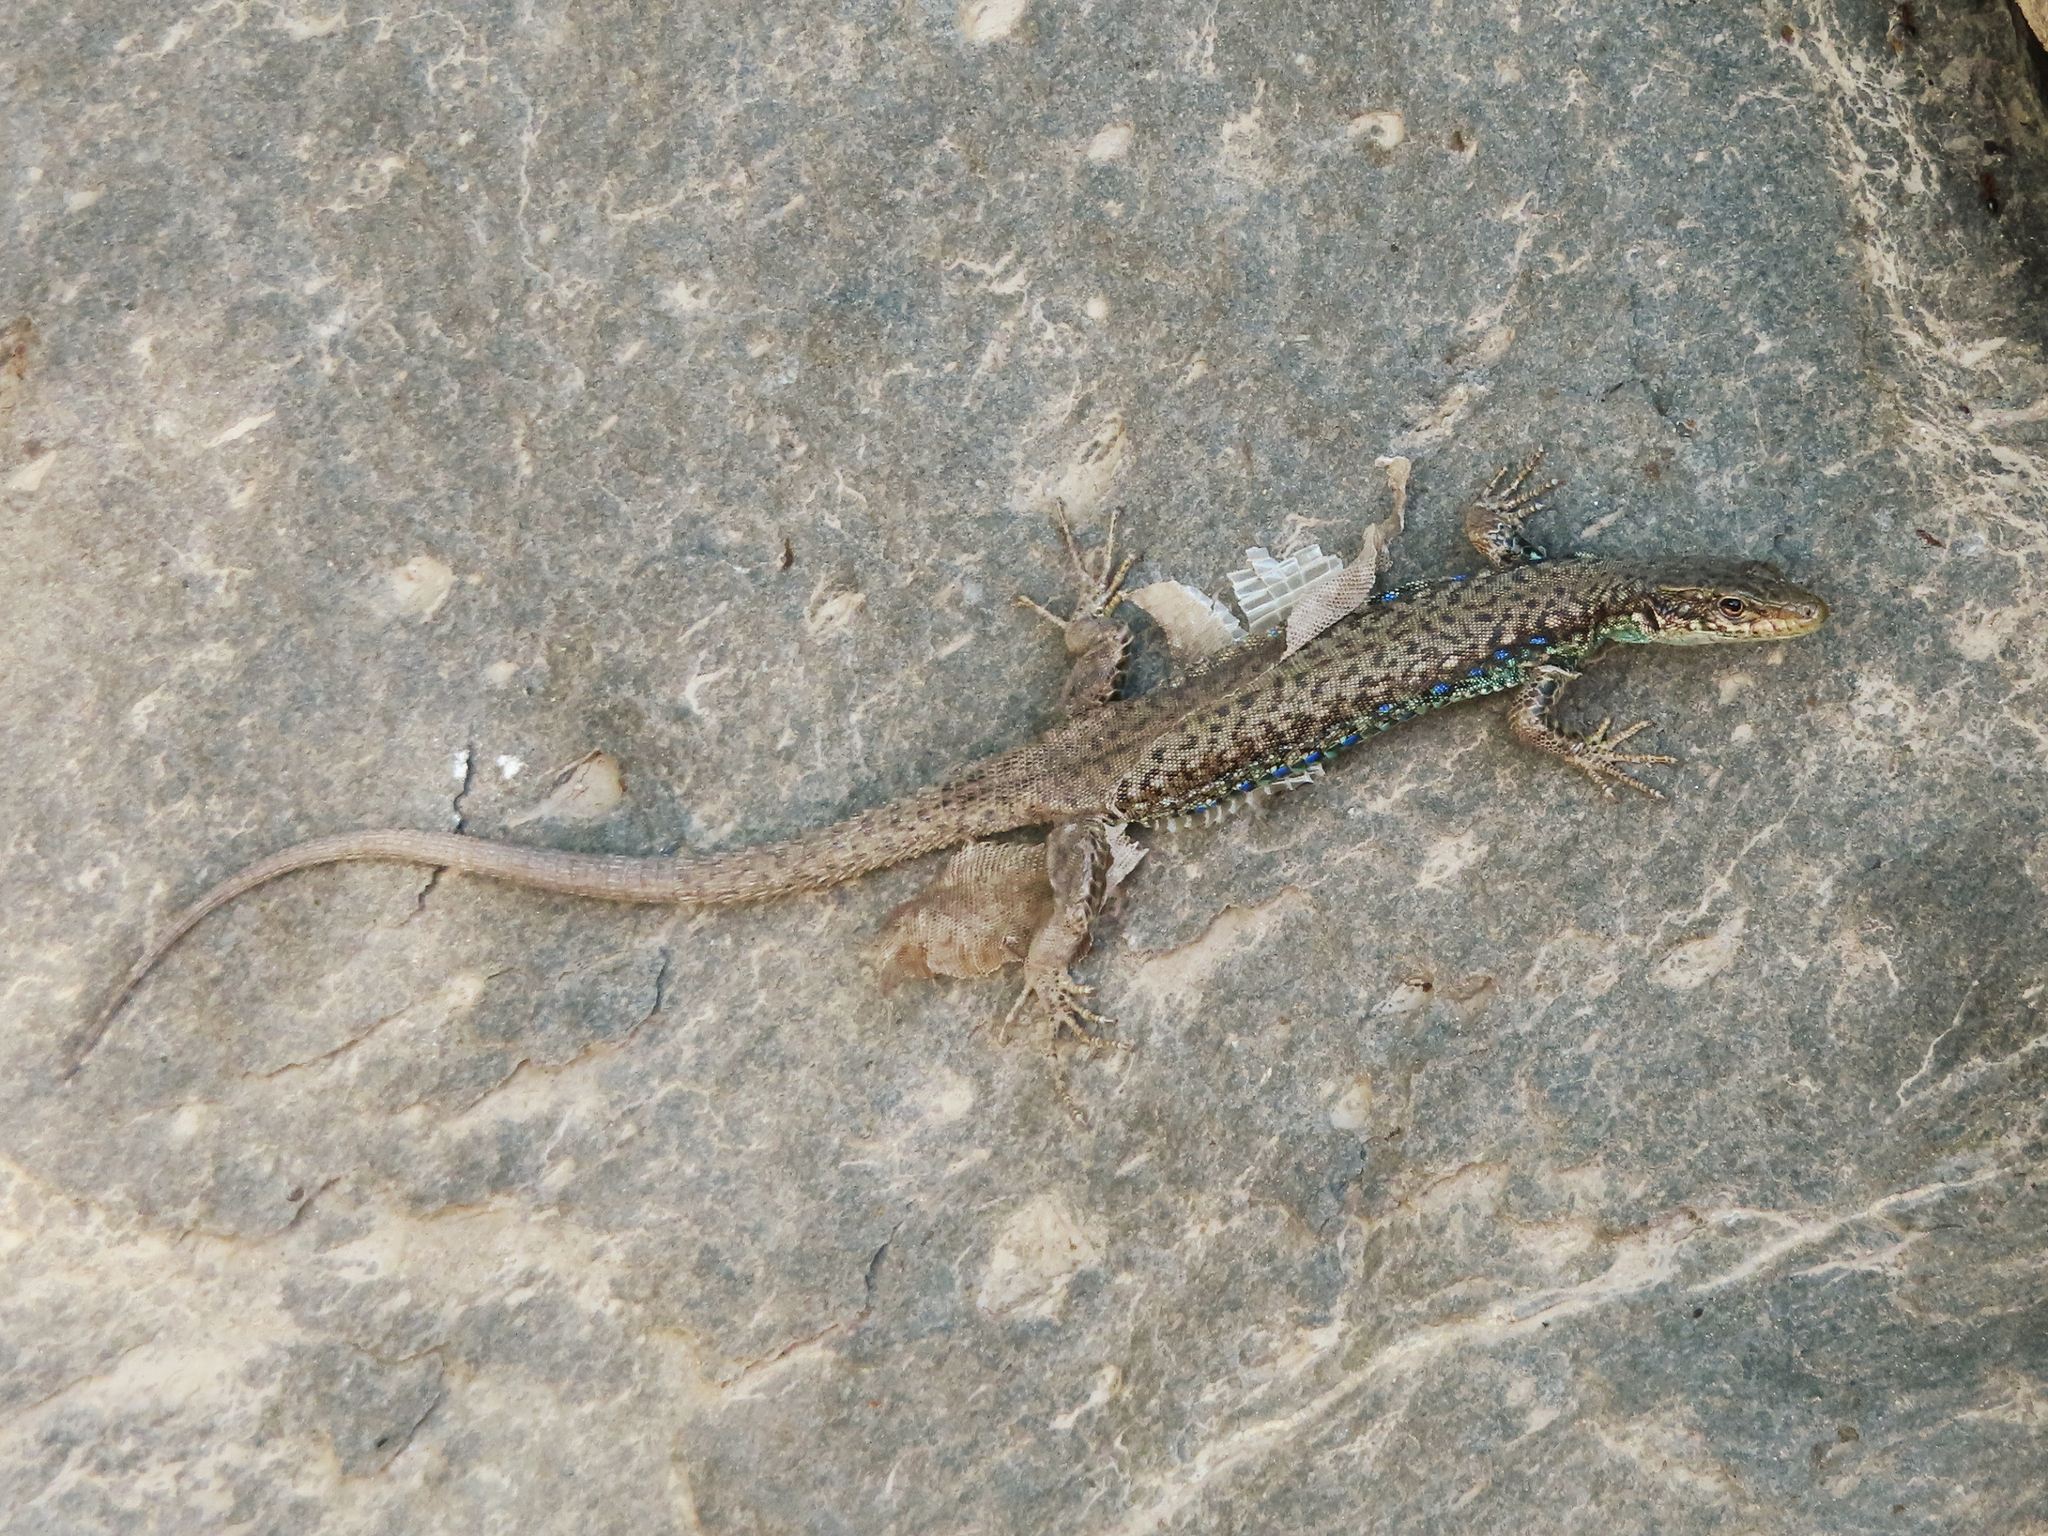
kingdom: Animalia
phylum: Chordata
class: Squamata
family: Lacertidae
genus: Darevskia
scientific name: Darevskia
